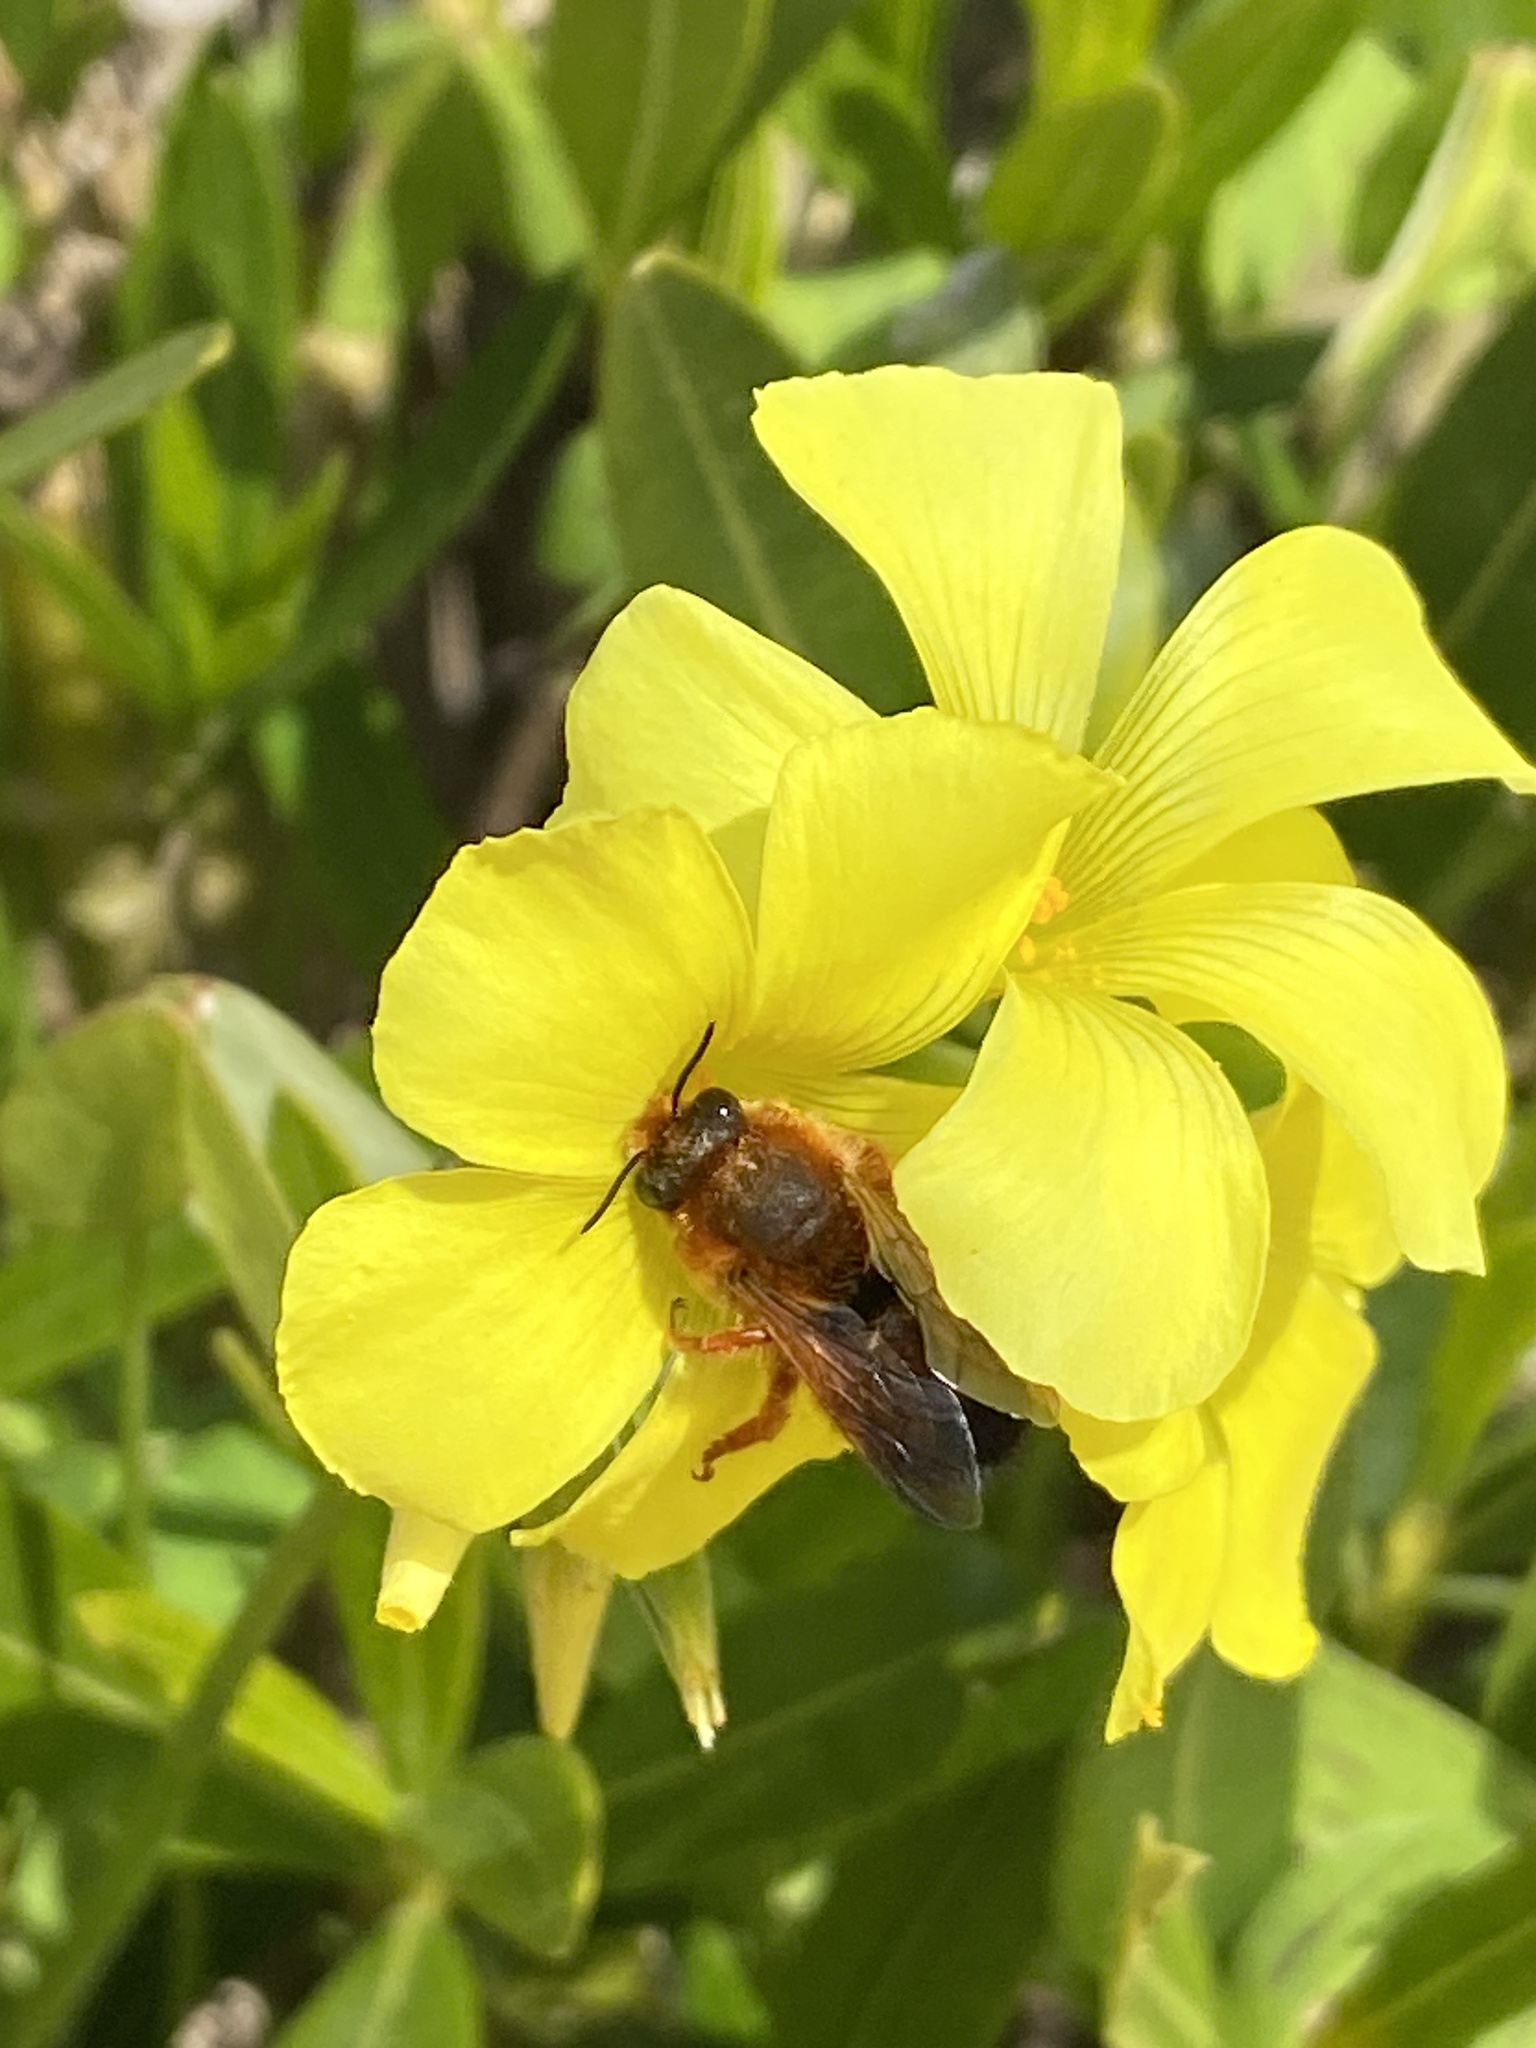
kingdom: Animalia
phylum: Arthropoda
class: Insecta
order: Hymenoptera
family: Megachilidae
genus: Megachile
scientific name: Megachile sicula
